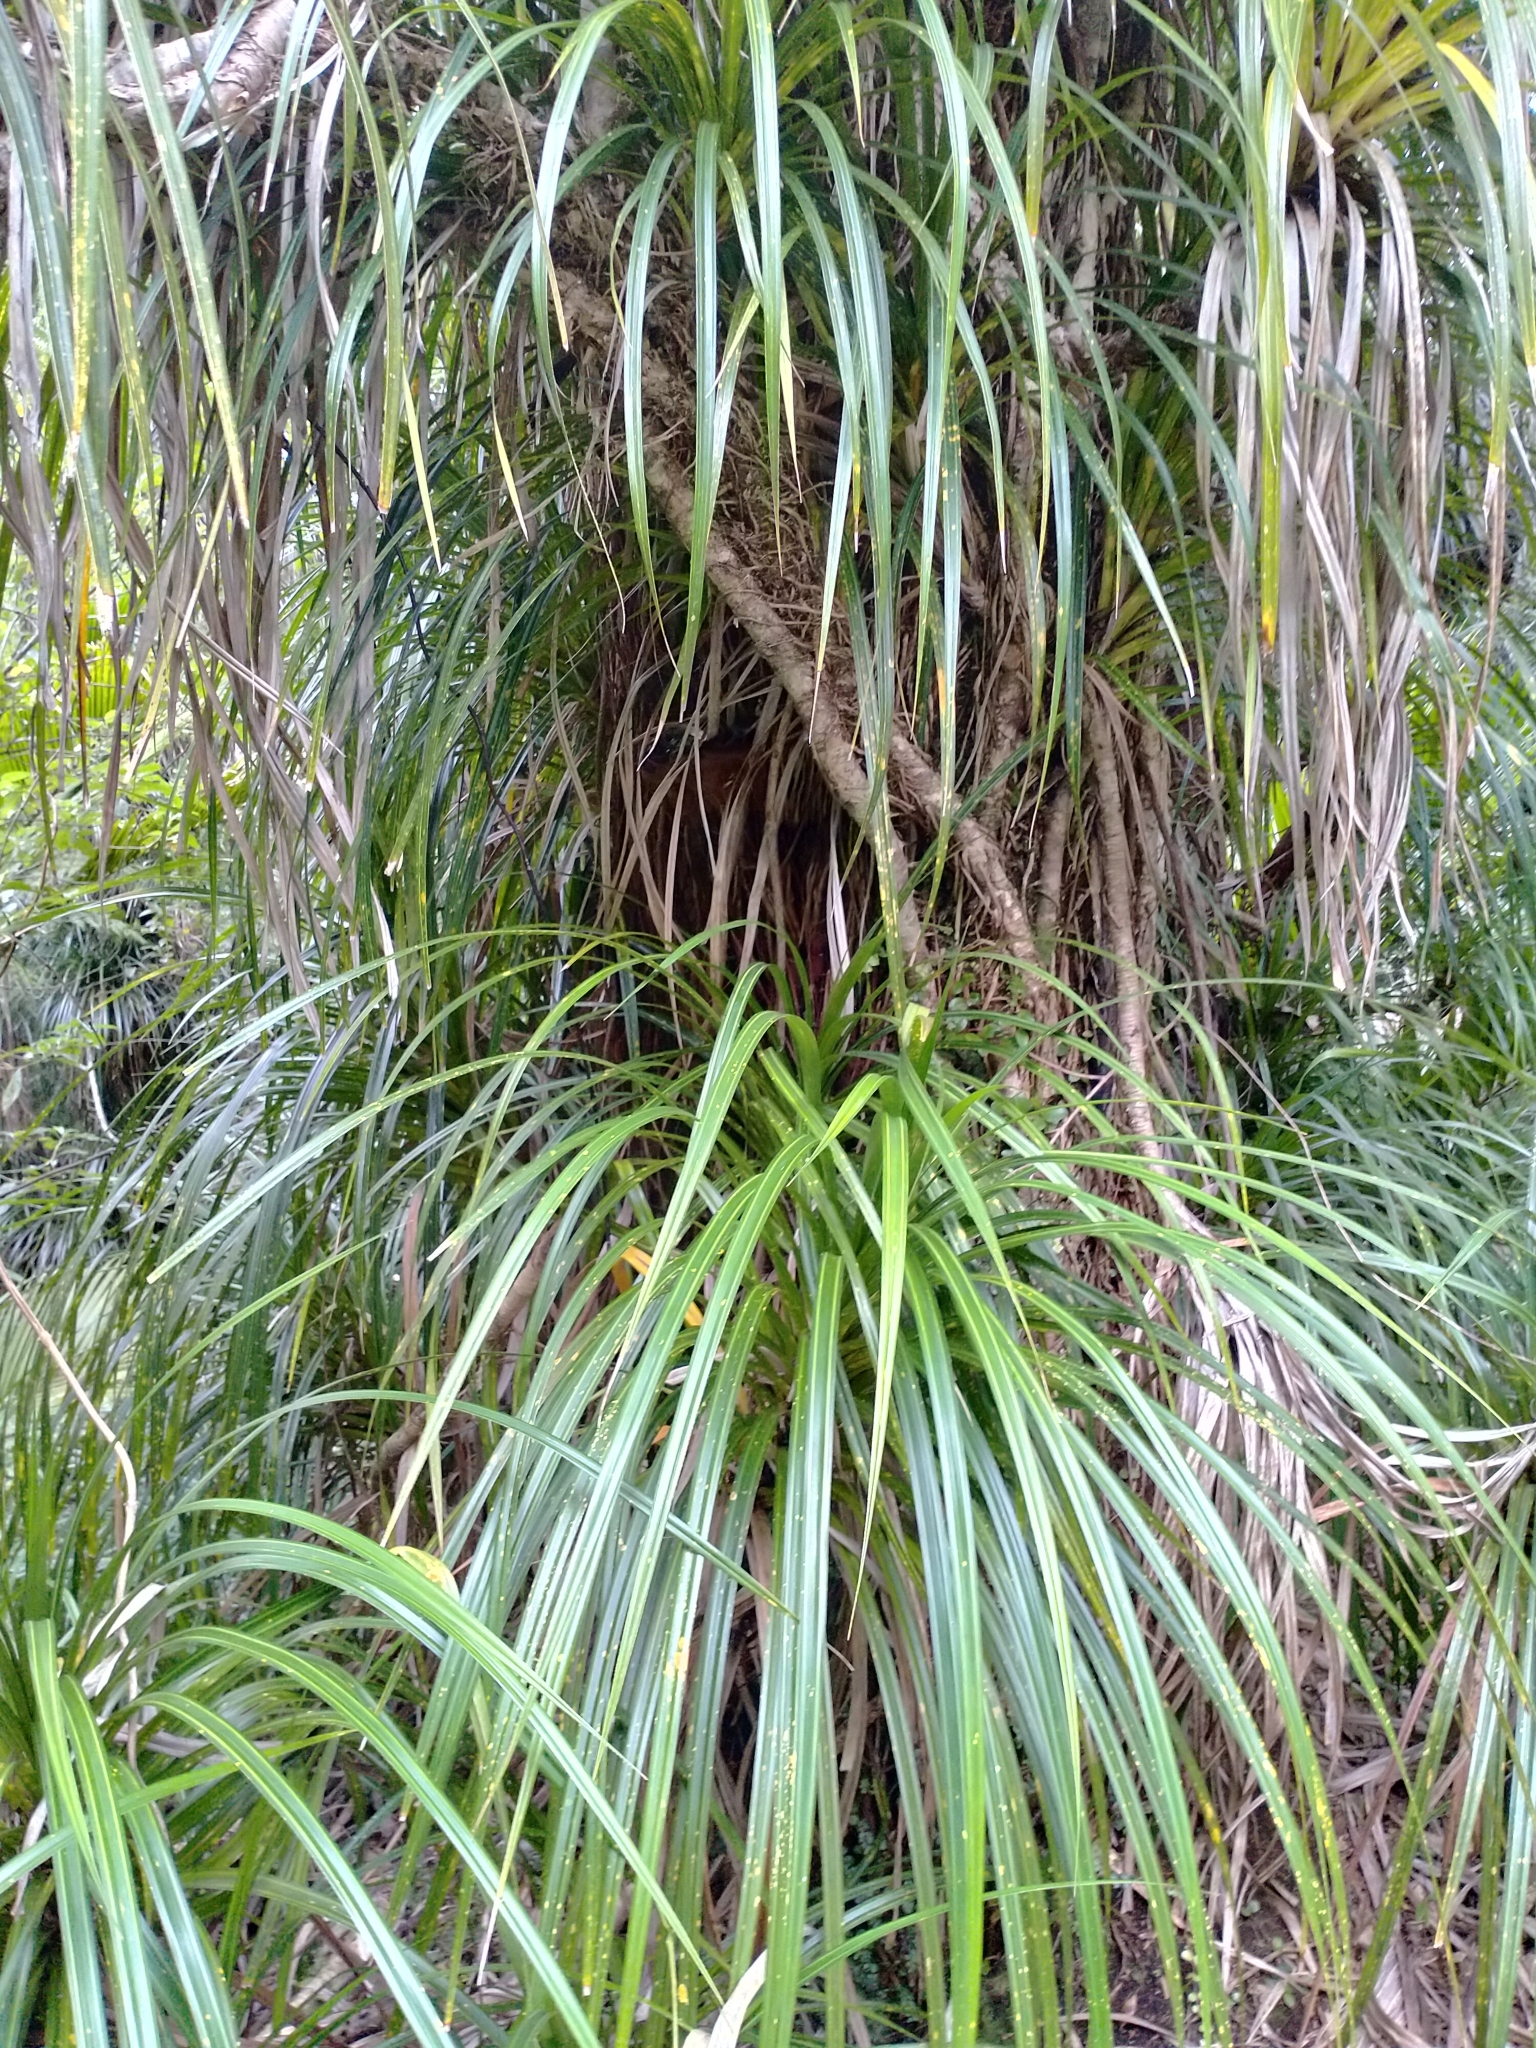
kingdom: Plantae
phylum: Tracheophyta
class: Liliopsida
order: Pandanales
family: Pandanaceae
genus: Freycinetia
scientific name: Freycinetia banksii
